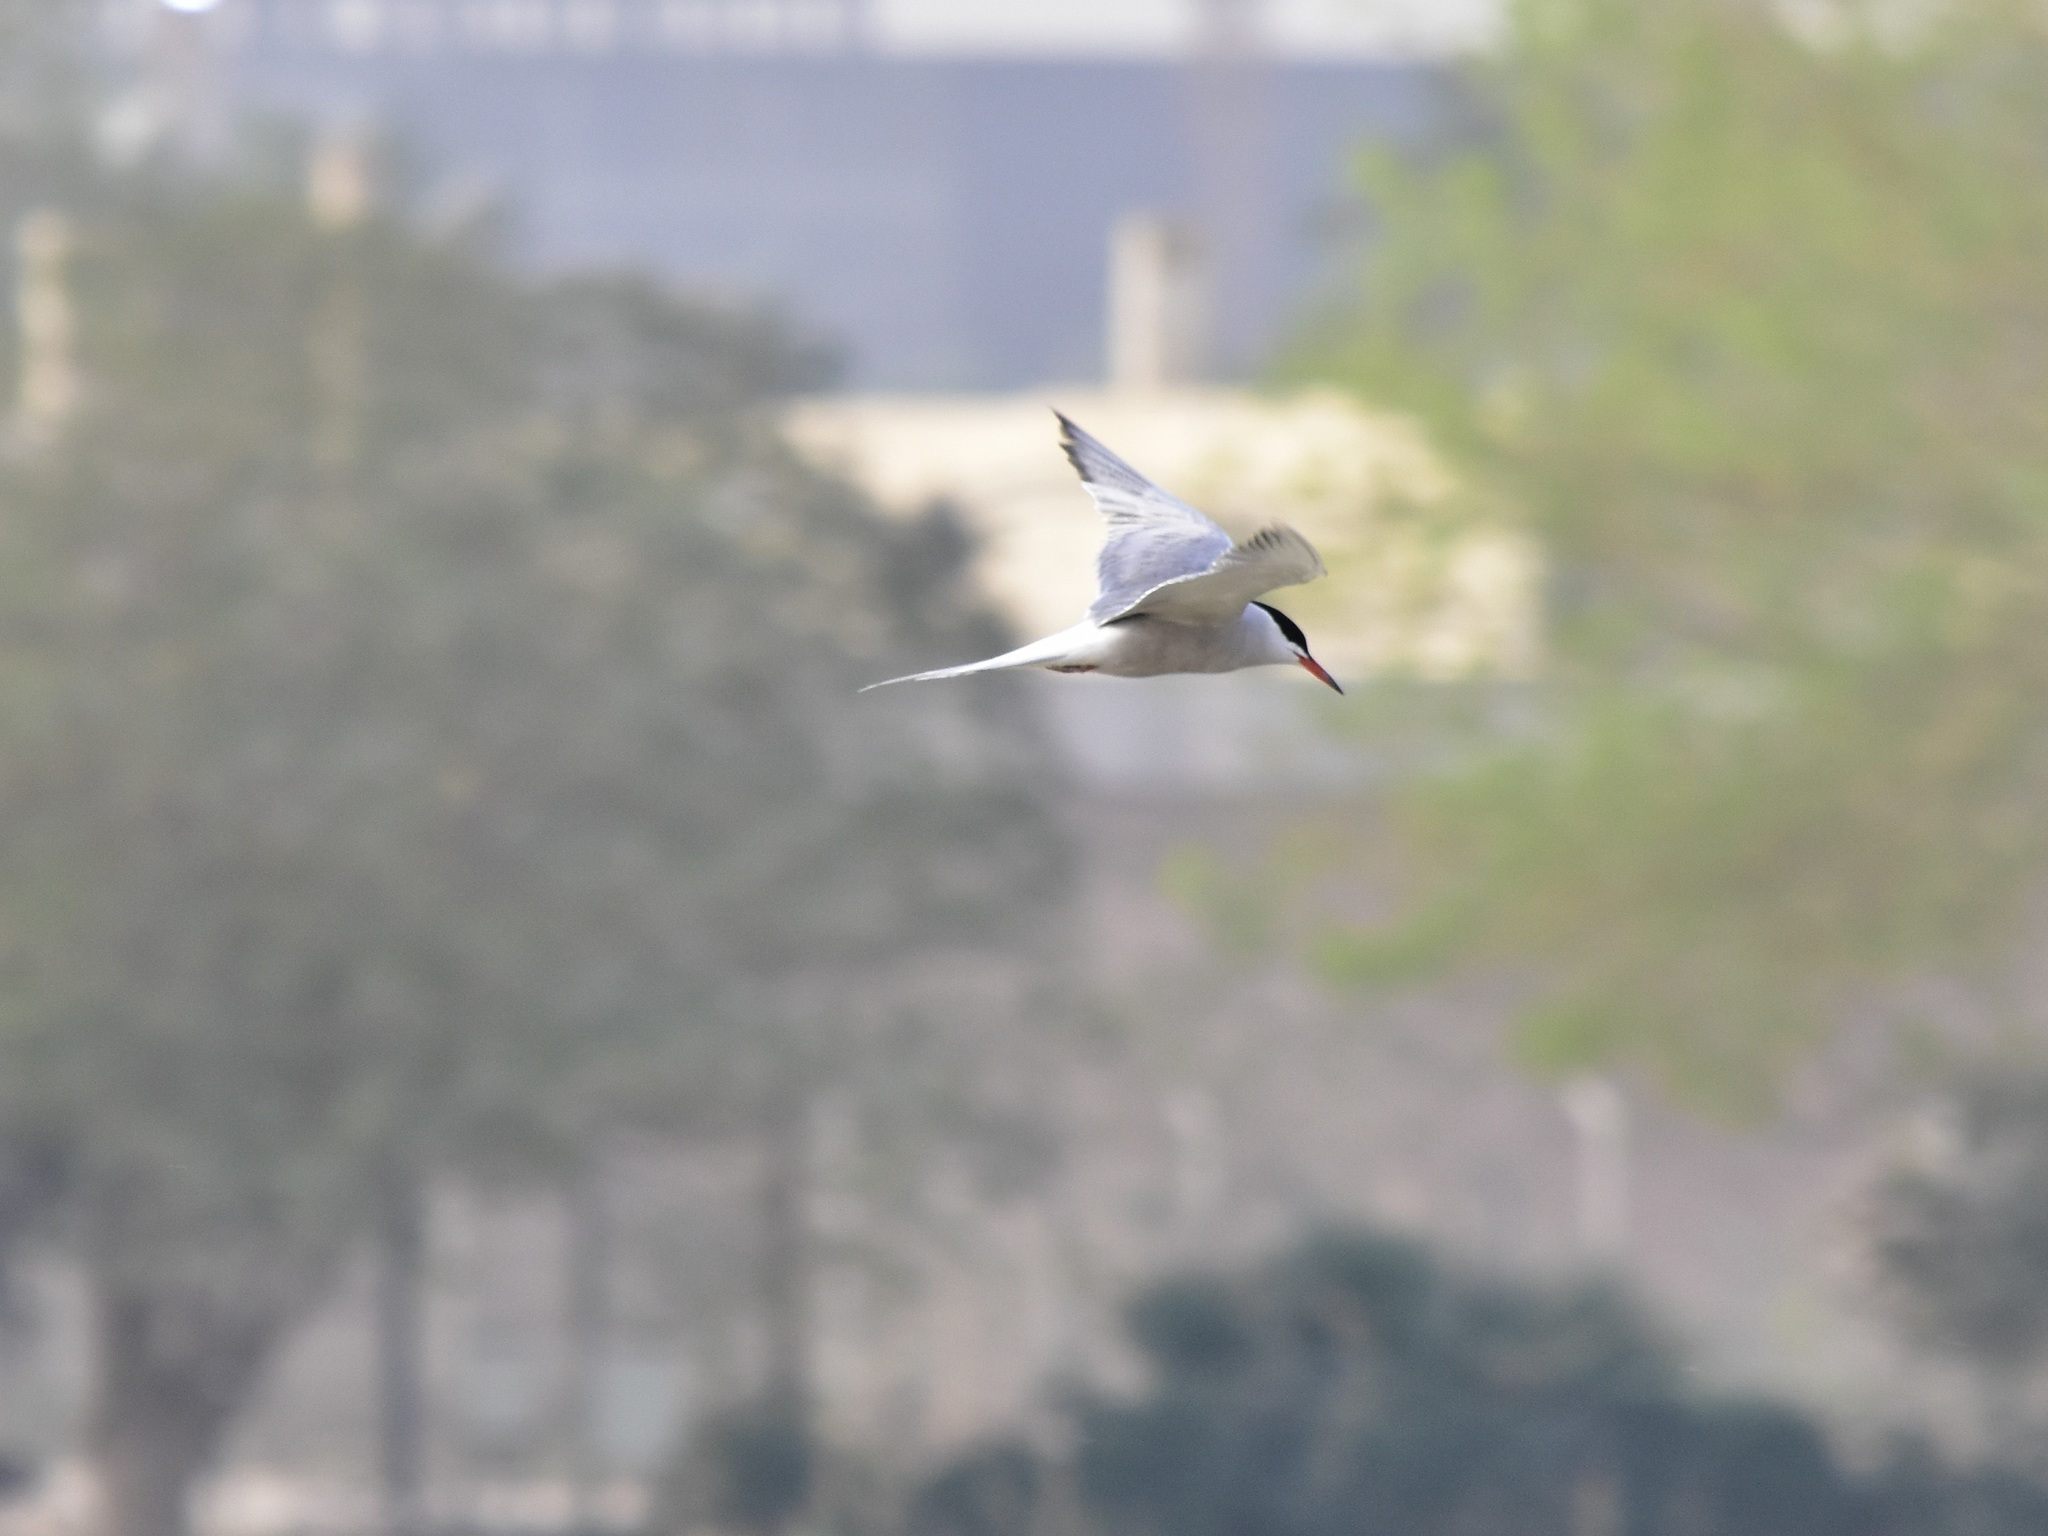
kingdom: Animalia
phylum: Chordata
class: Aves
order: Charadriiformes
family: Laridae
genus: Sterna
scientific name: Sterna hirundo
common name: Common tern
